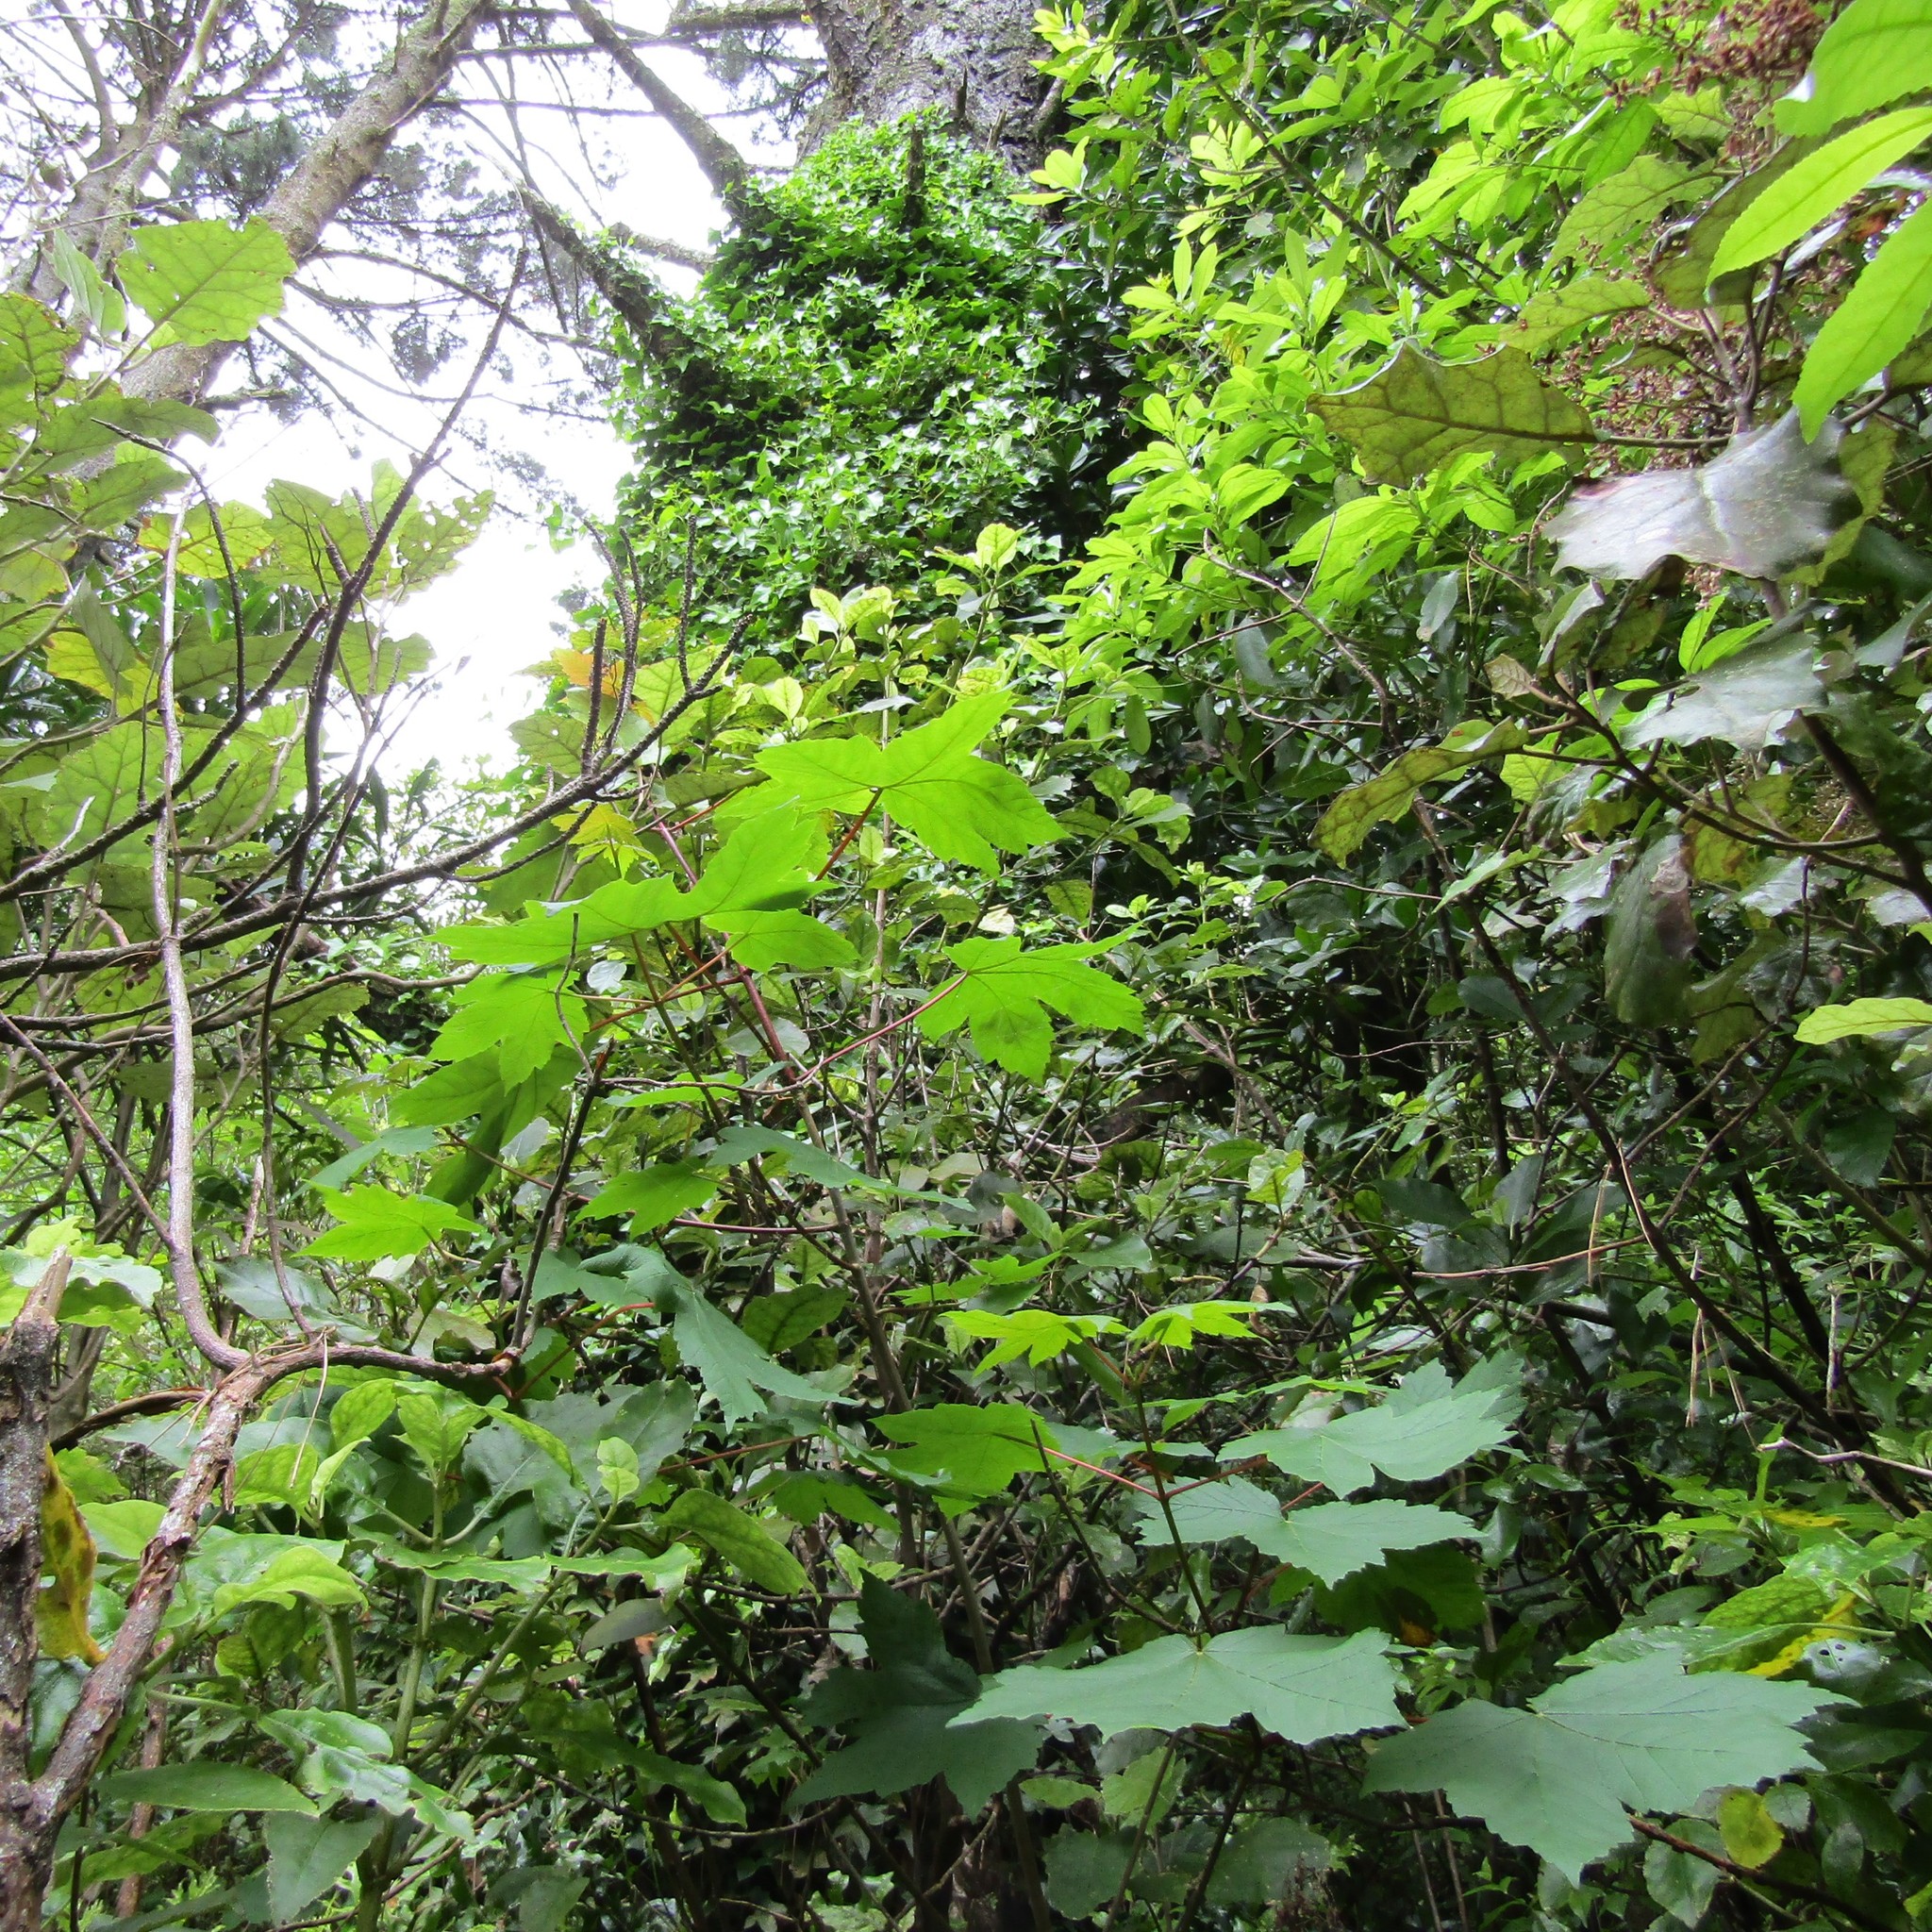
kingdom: Plantae
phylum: Tracheophyta
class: Magnoliopsida
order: Apiales
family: Araliaceae
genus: Hedera
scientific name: Hedera helix
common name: Ivy
